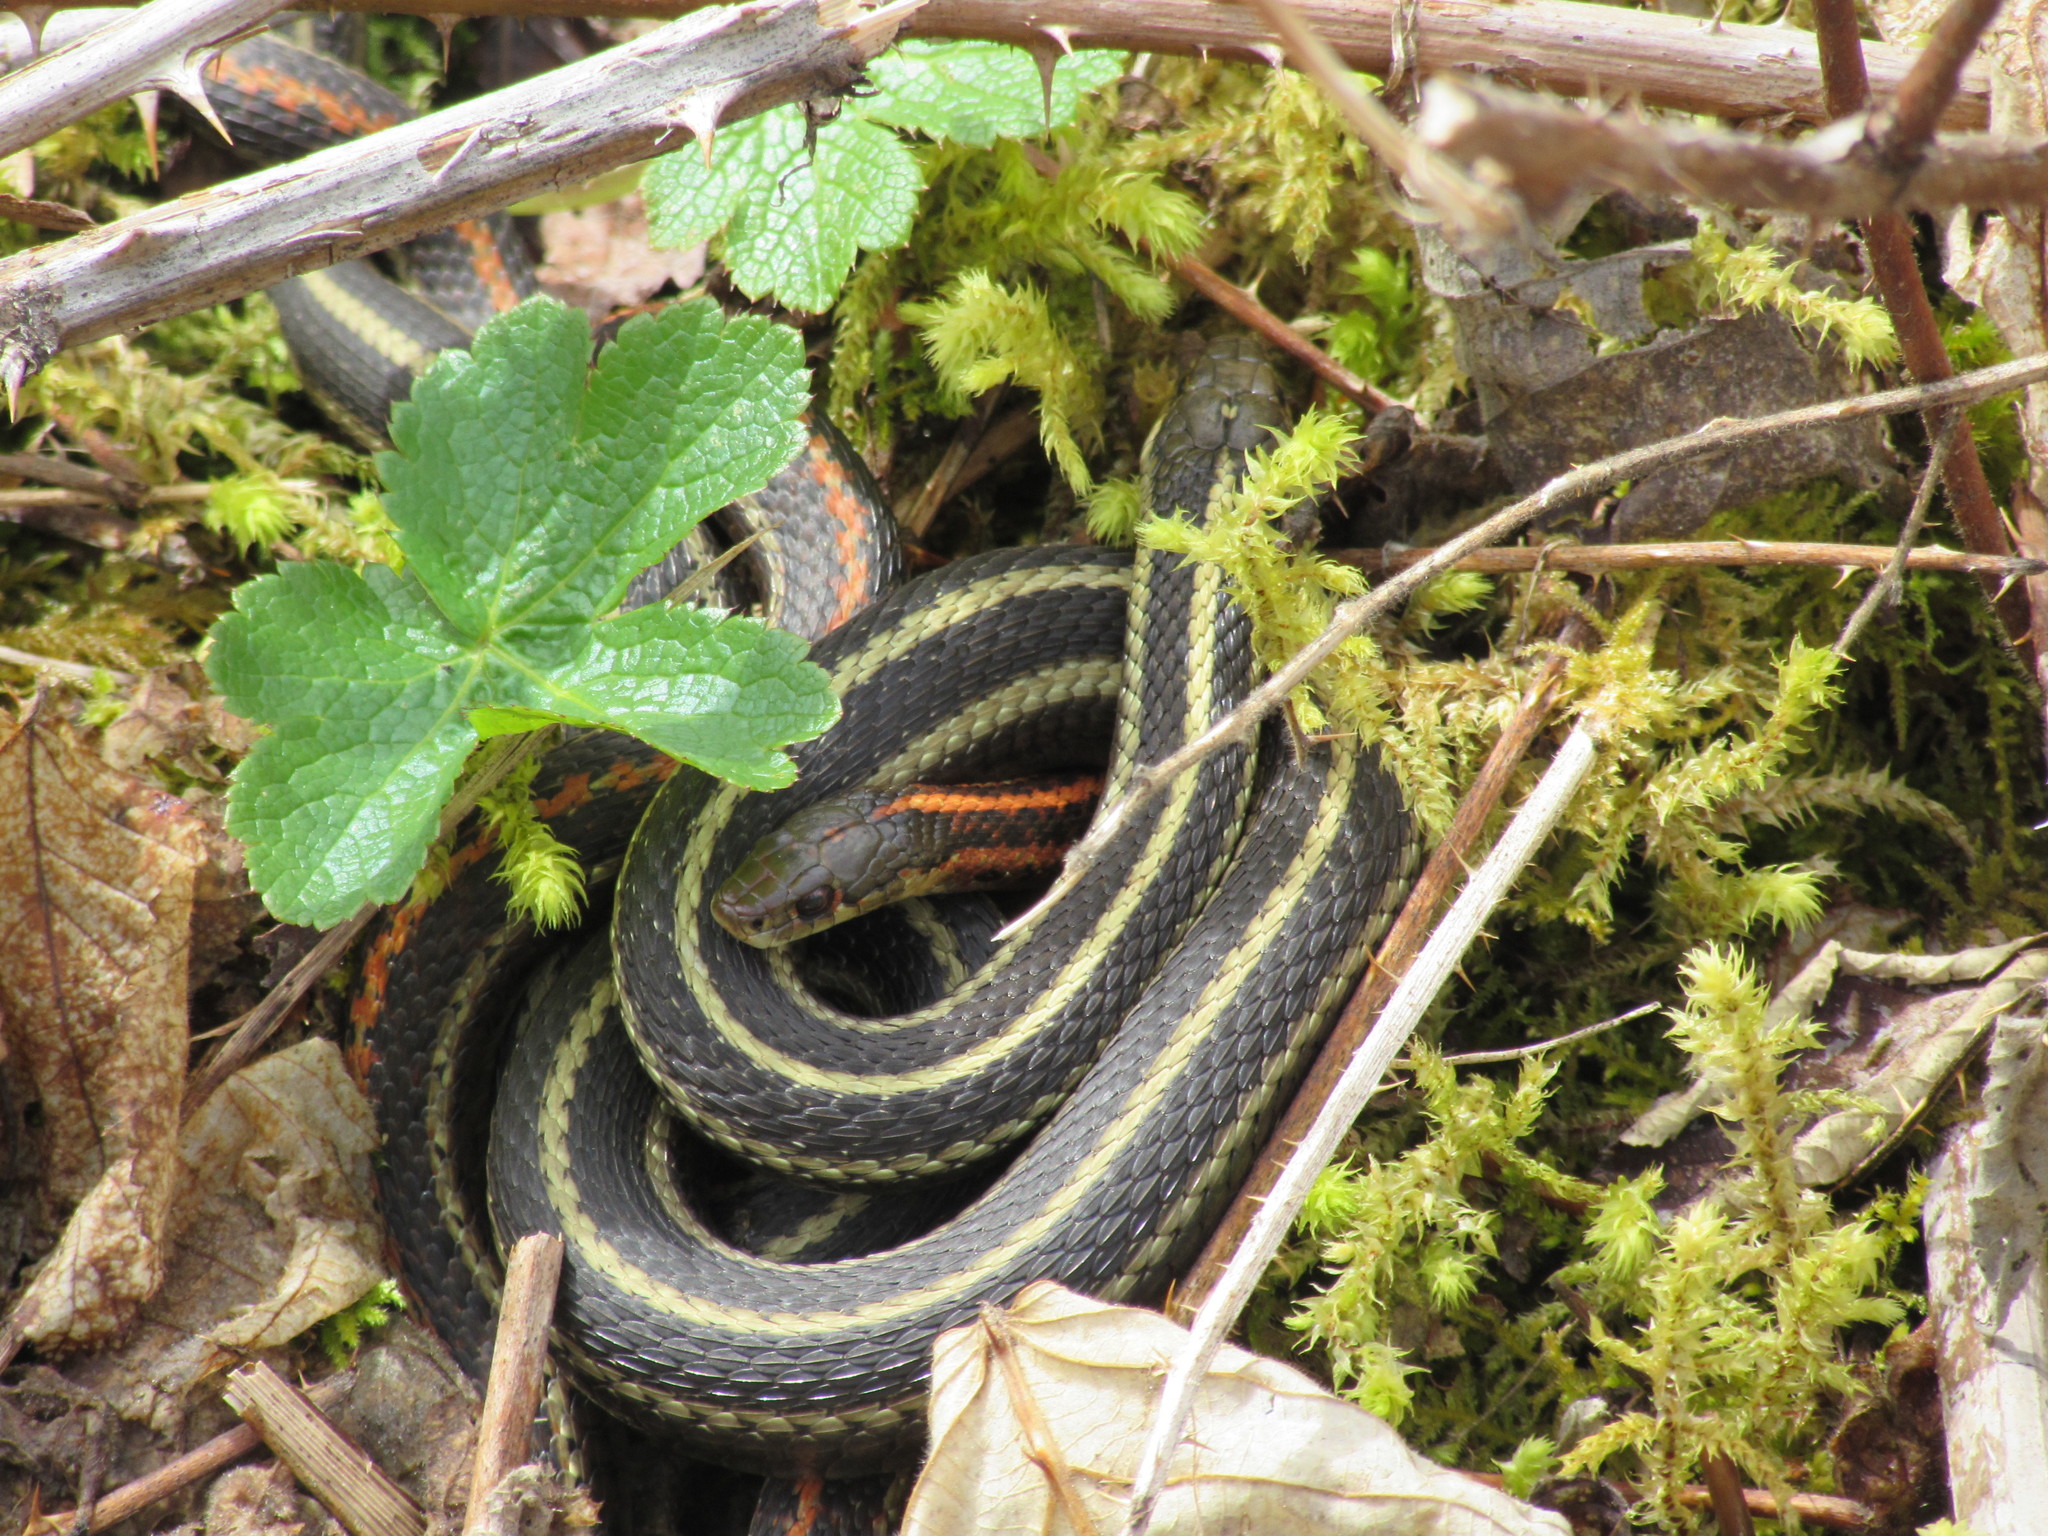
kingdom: Animalia
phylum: Chordata
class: Squamata
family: Colubridae
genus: Thamnophis
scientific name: Thamnophis ordinoides
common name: Northwestern garter snake
